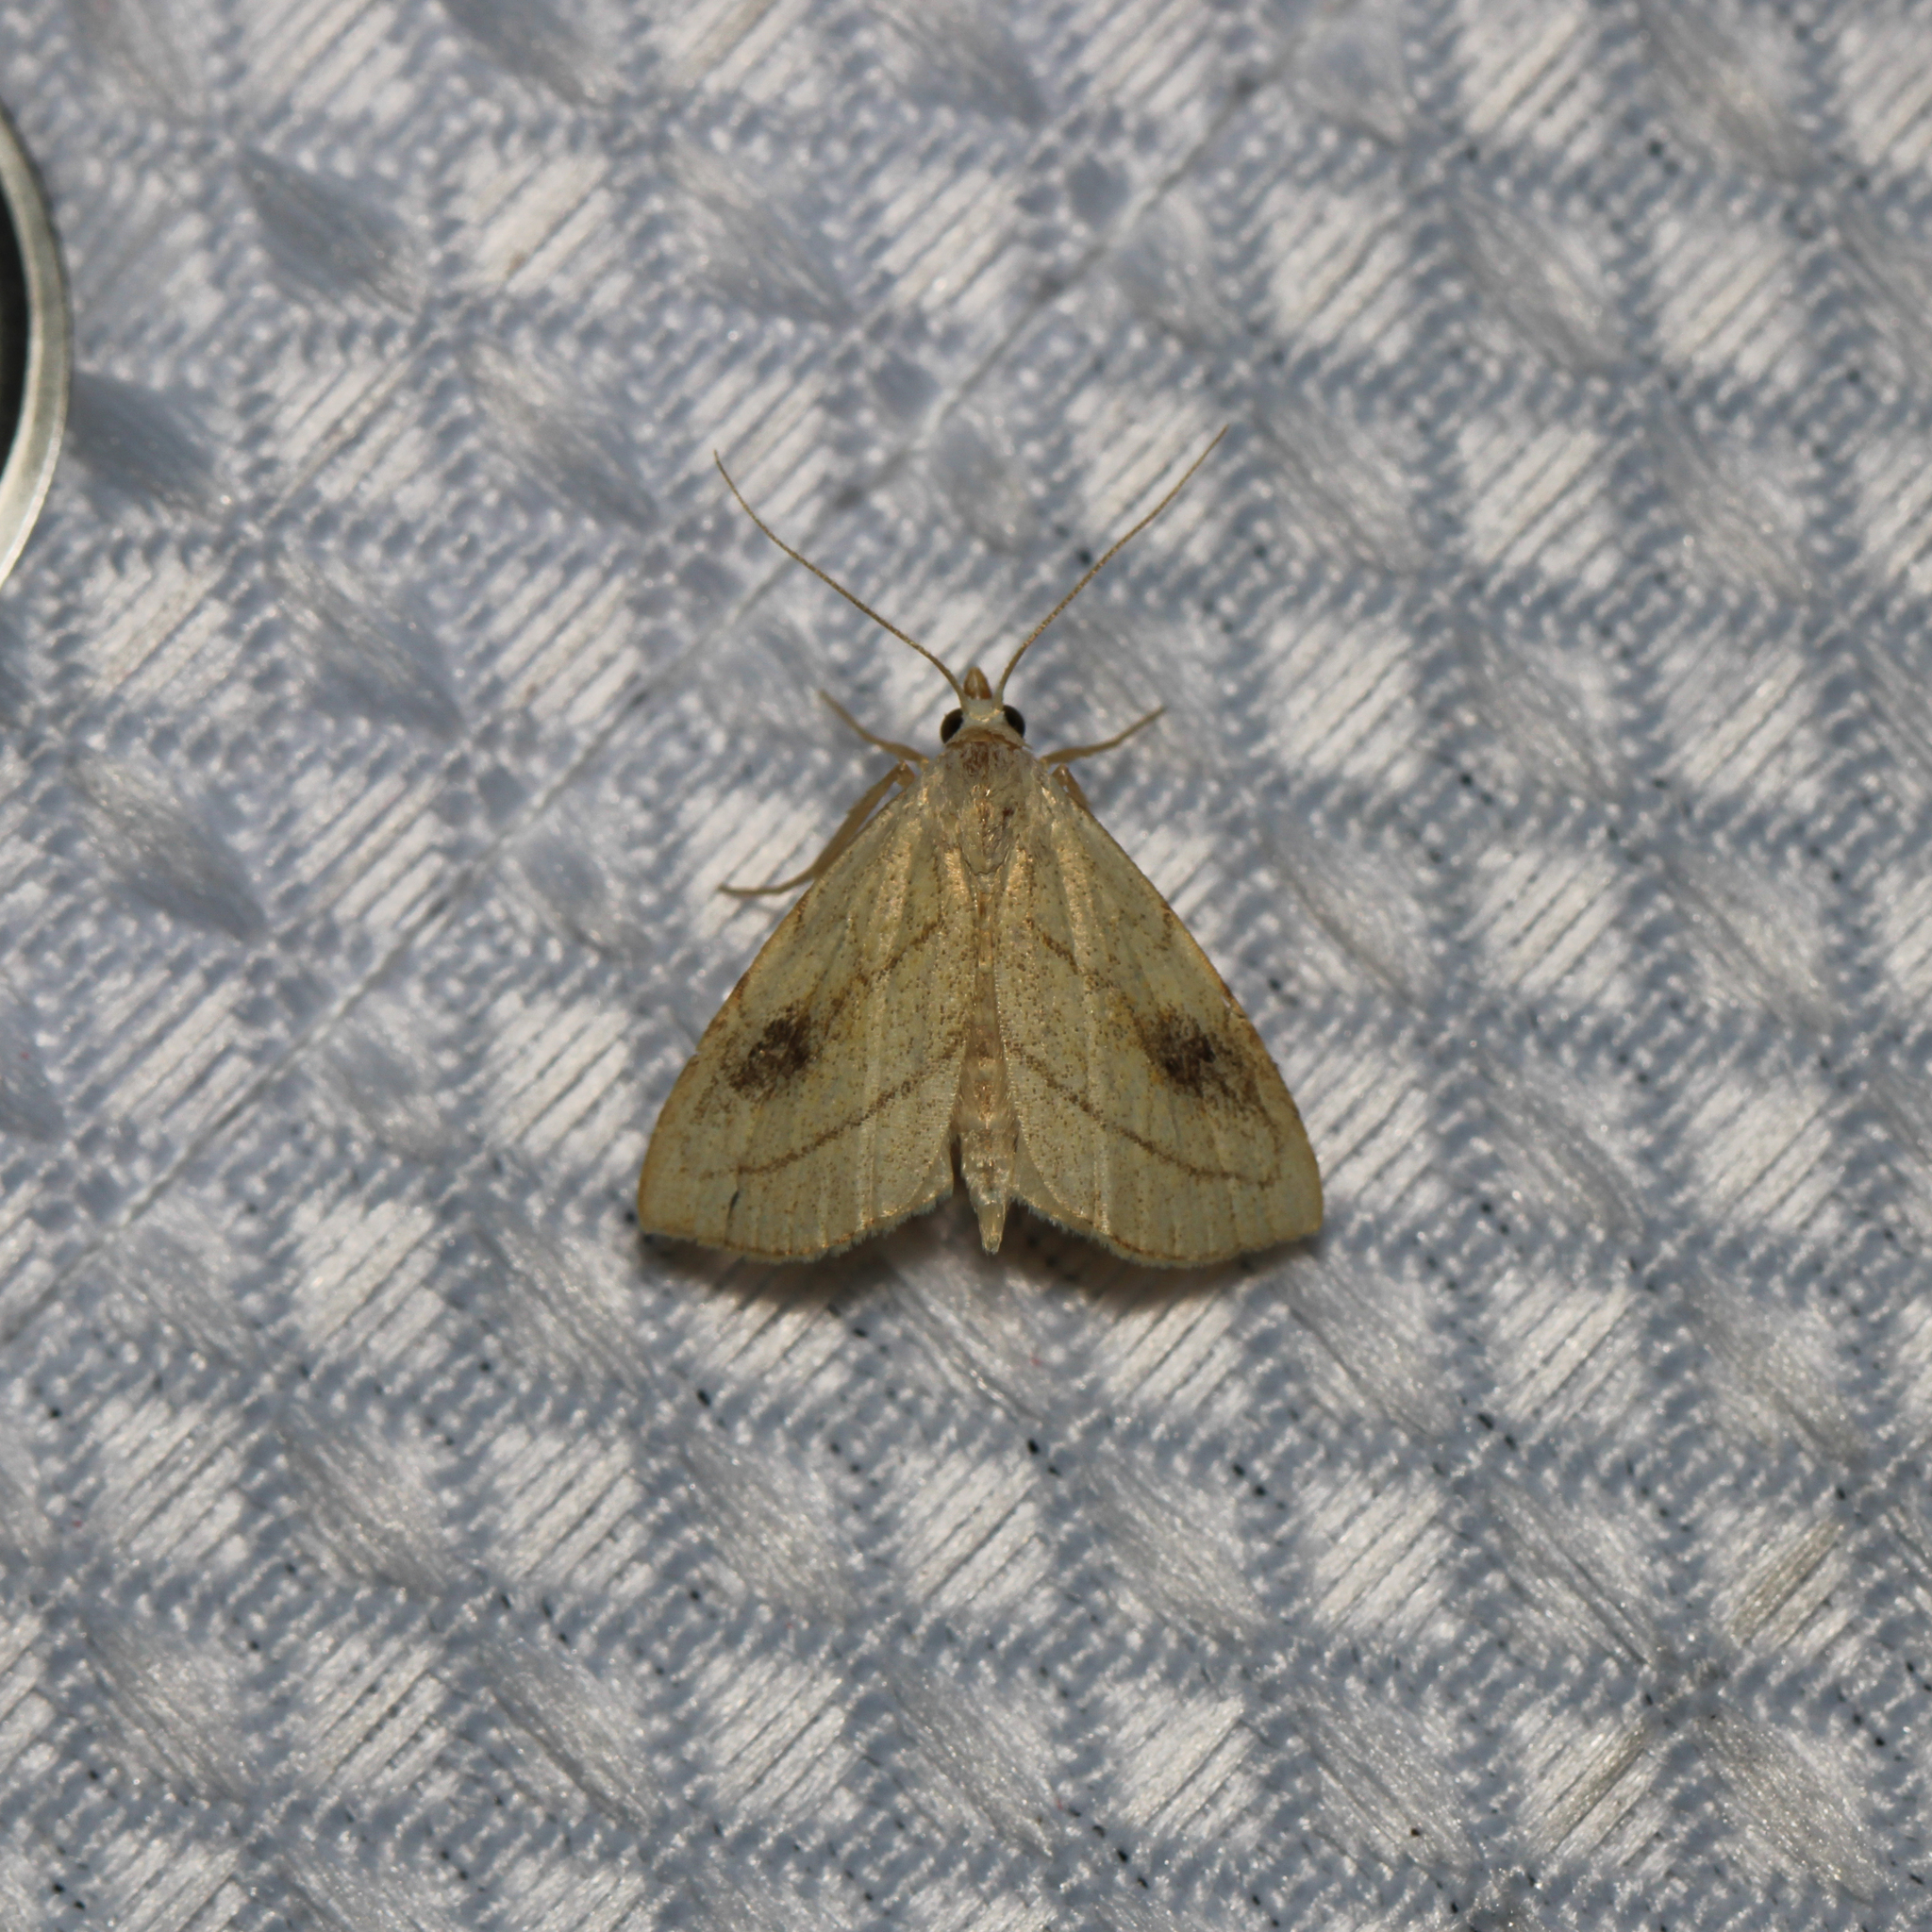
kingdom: Animalia
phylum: Arthropoda
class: Insecta
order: Lepidoptera
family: Erebidae
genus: Rivula
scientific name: Rivula propinqualis
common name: Spotted grass moth
